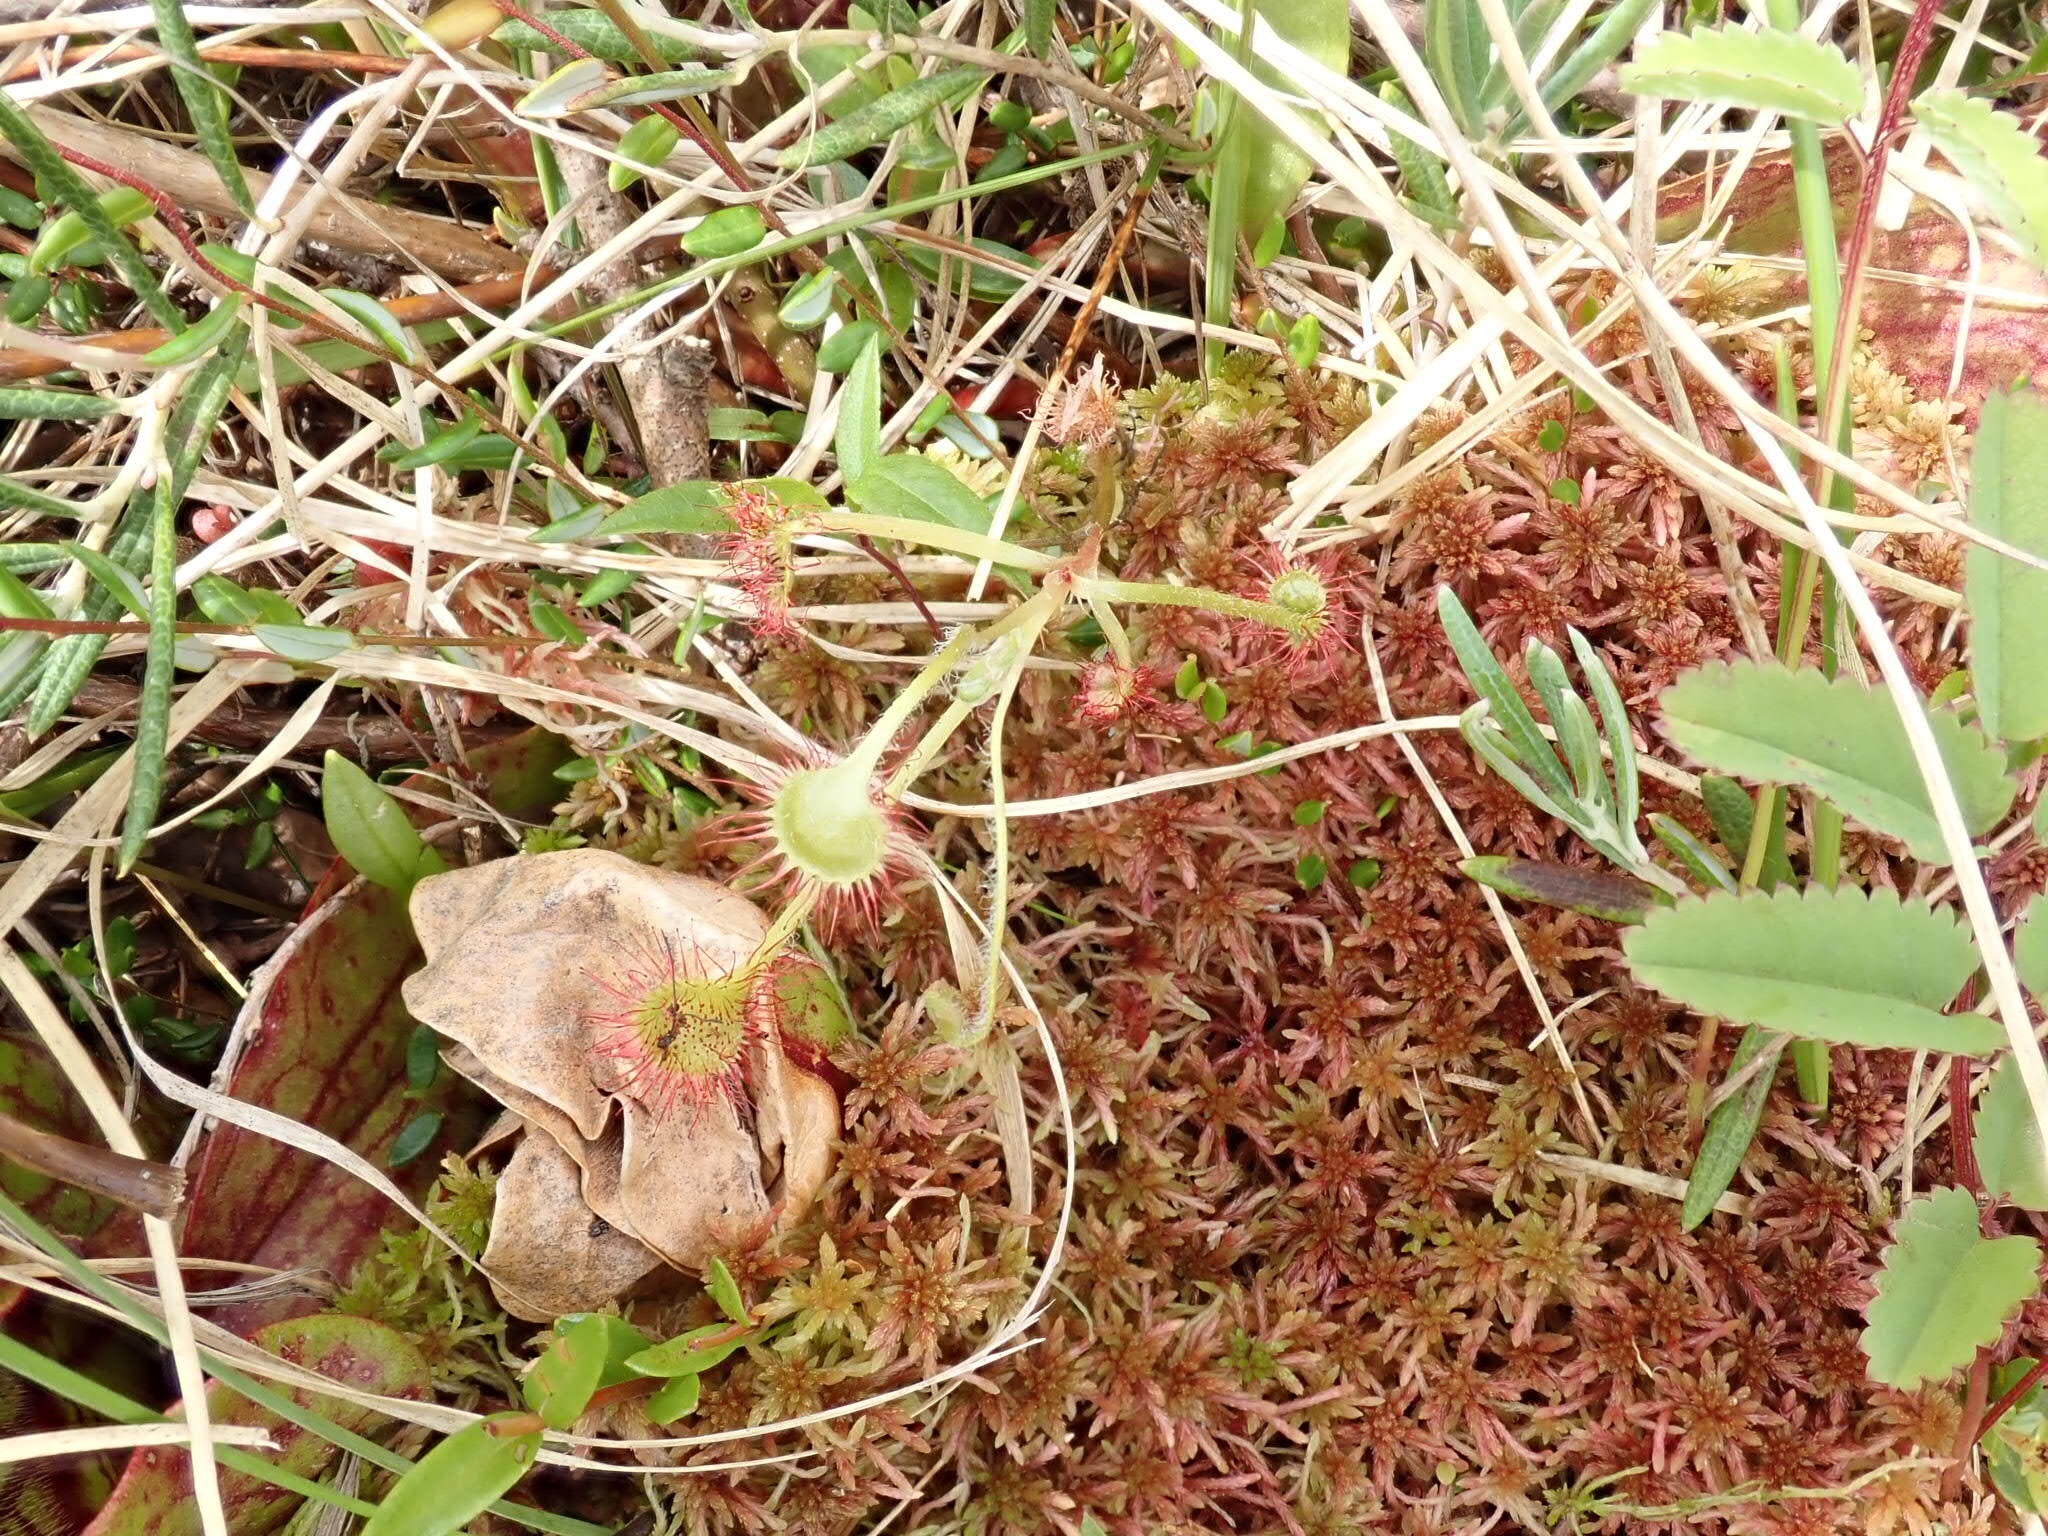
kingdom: Plantae
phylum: Tracheophyta
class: Magnoliopsida
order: Caryophyllales
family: Droseraceae
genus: Drosera
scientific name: Drosera rotundifolia
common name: Round-leaved sundew
